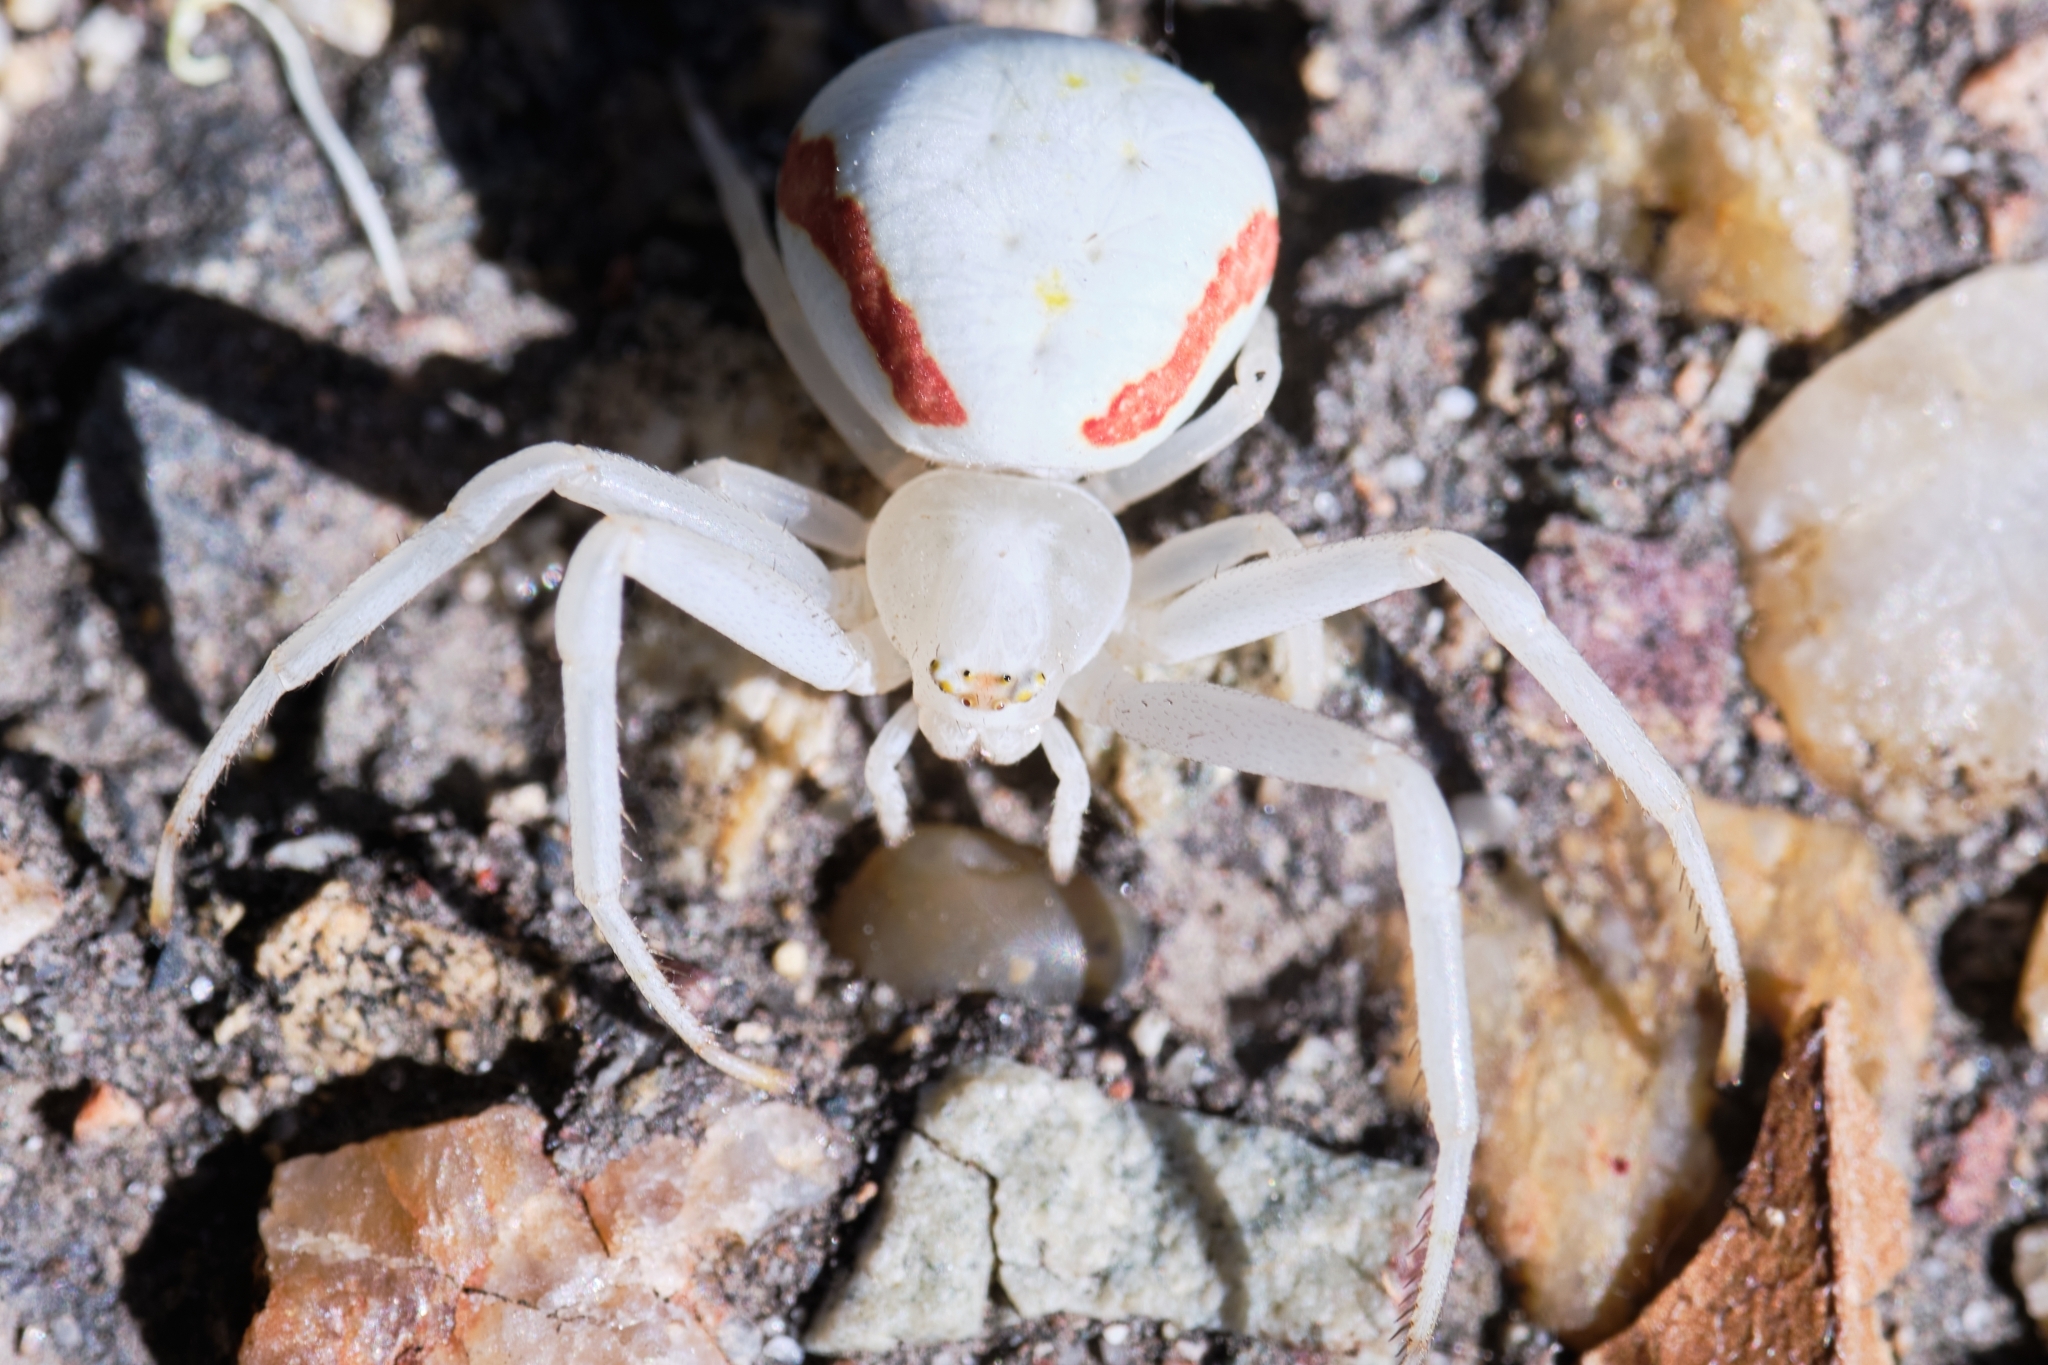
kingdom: Animalia
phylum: Arthropoda
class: Arachnida
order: Araneae
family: Thomisidae
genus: Misumena
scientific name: Misumena vatia
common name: Goldenrod crab spider
